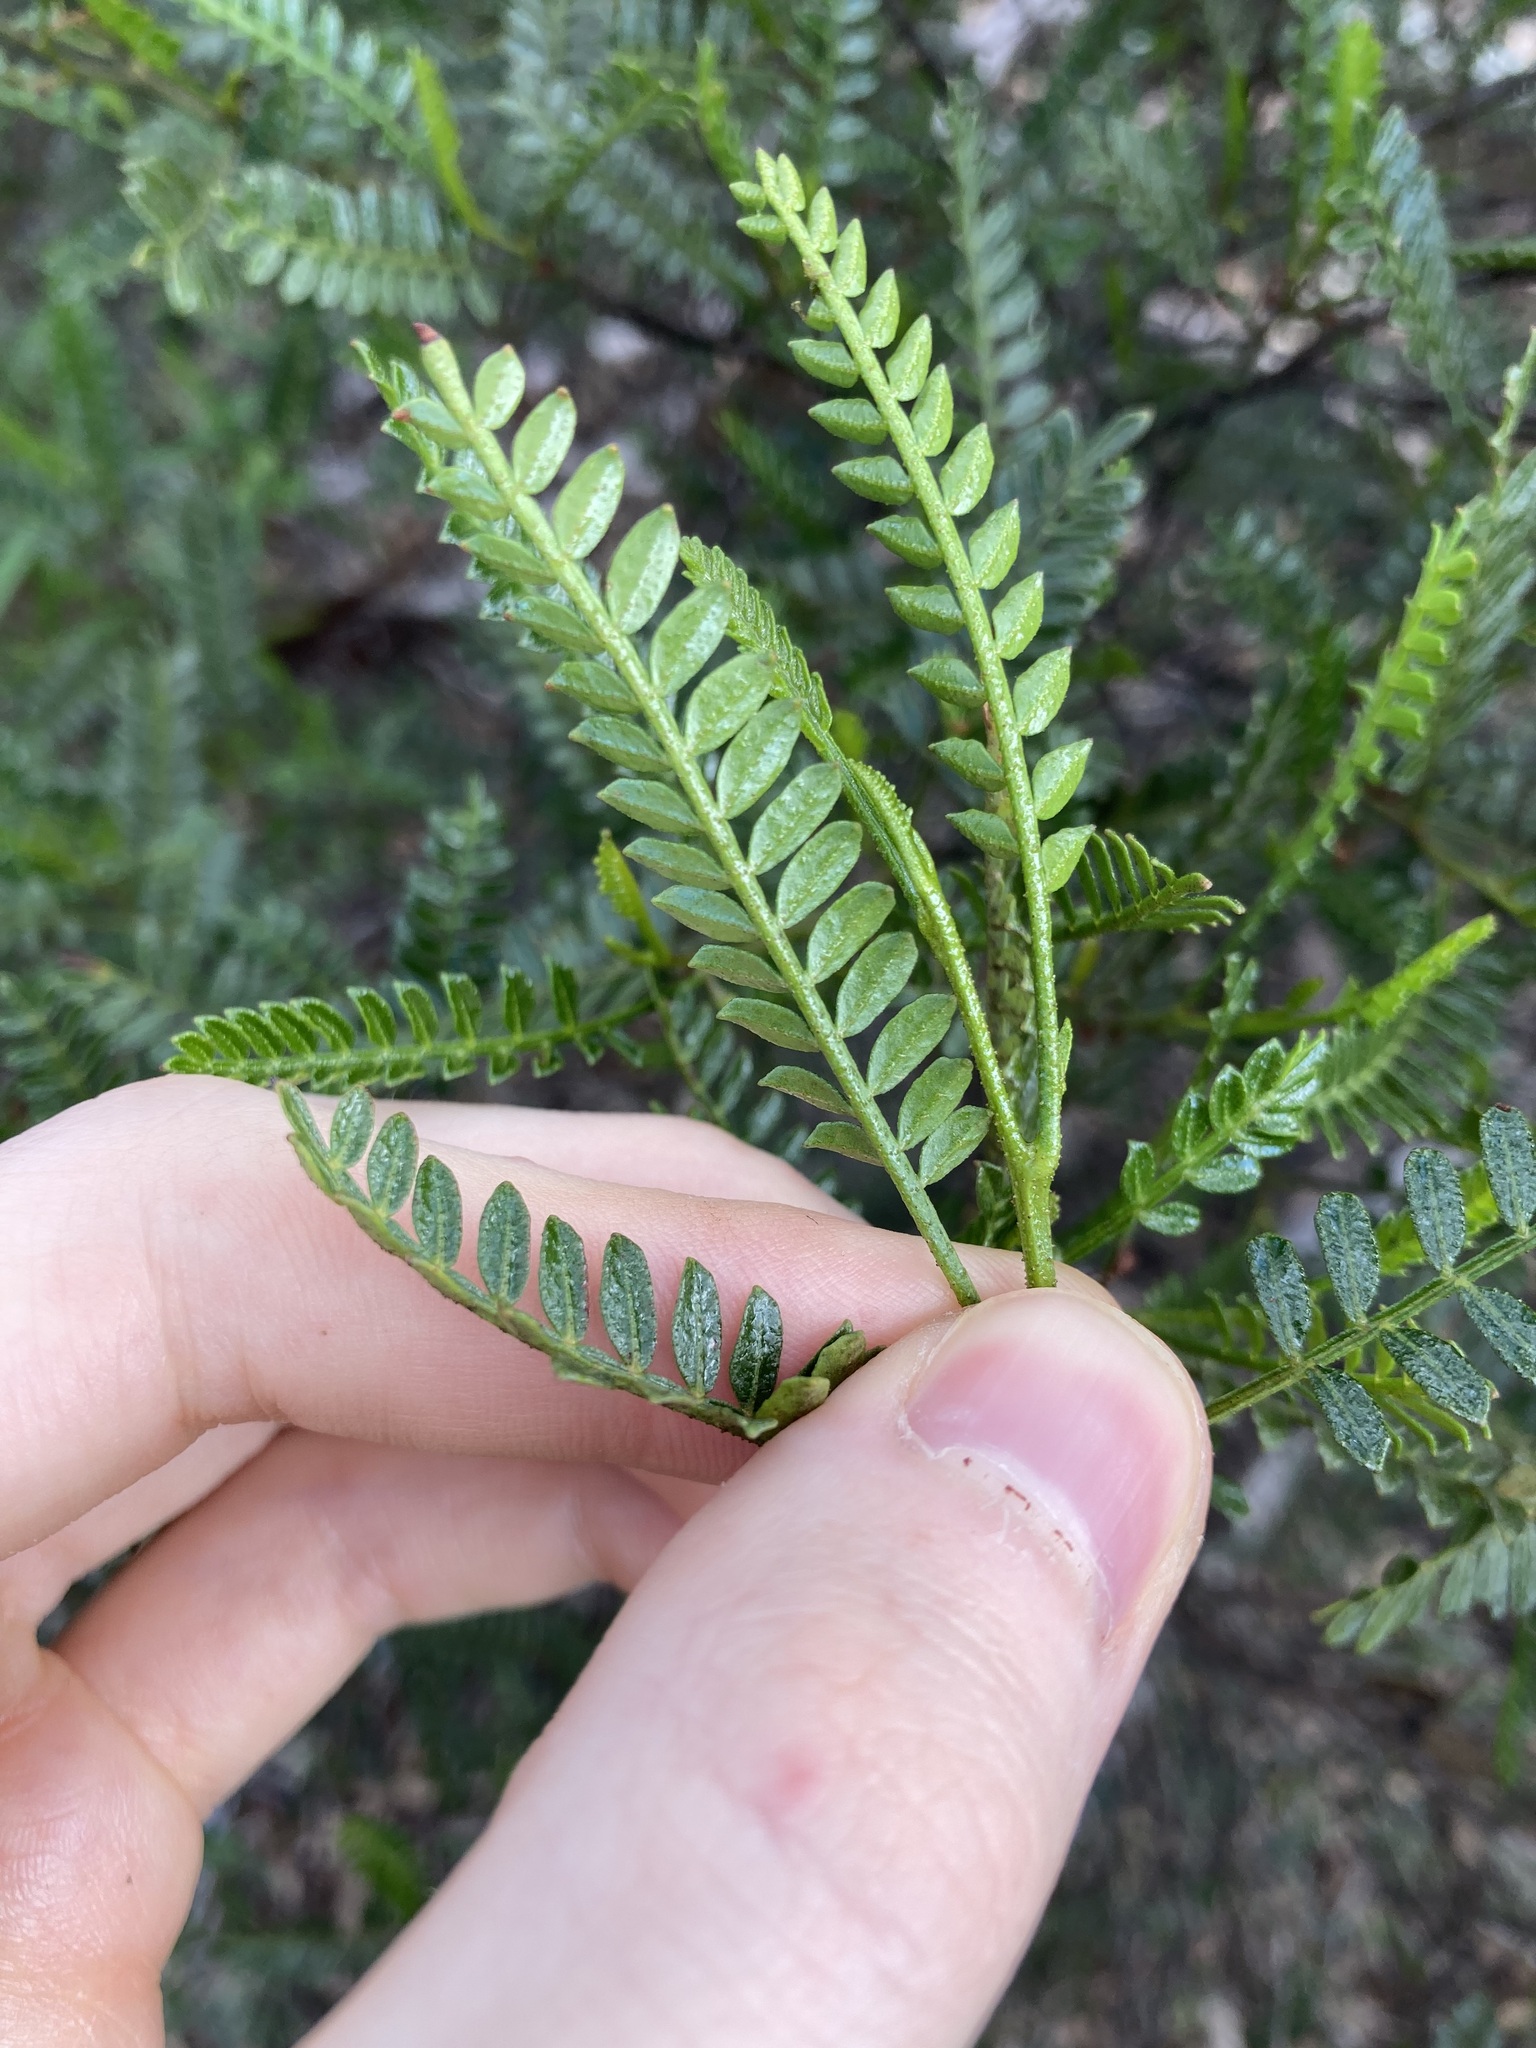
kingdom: Plantae
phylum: Tracheophyta
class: Magnoliopsida
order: Sapindales
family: Sapindaceae
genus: Dodonaea
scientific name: Dodonaea larreoides
